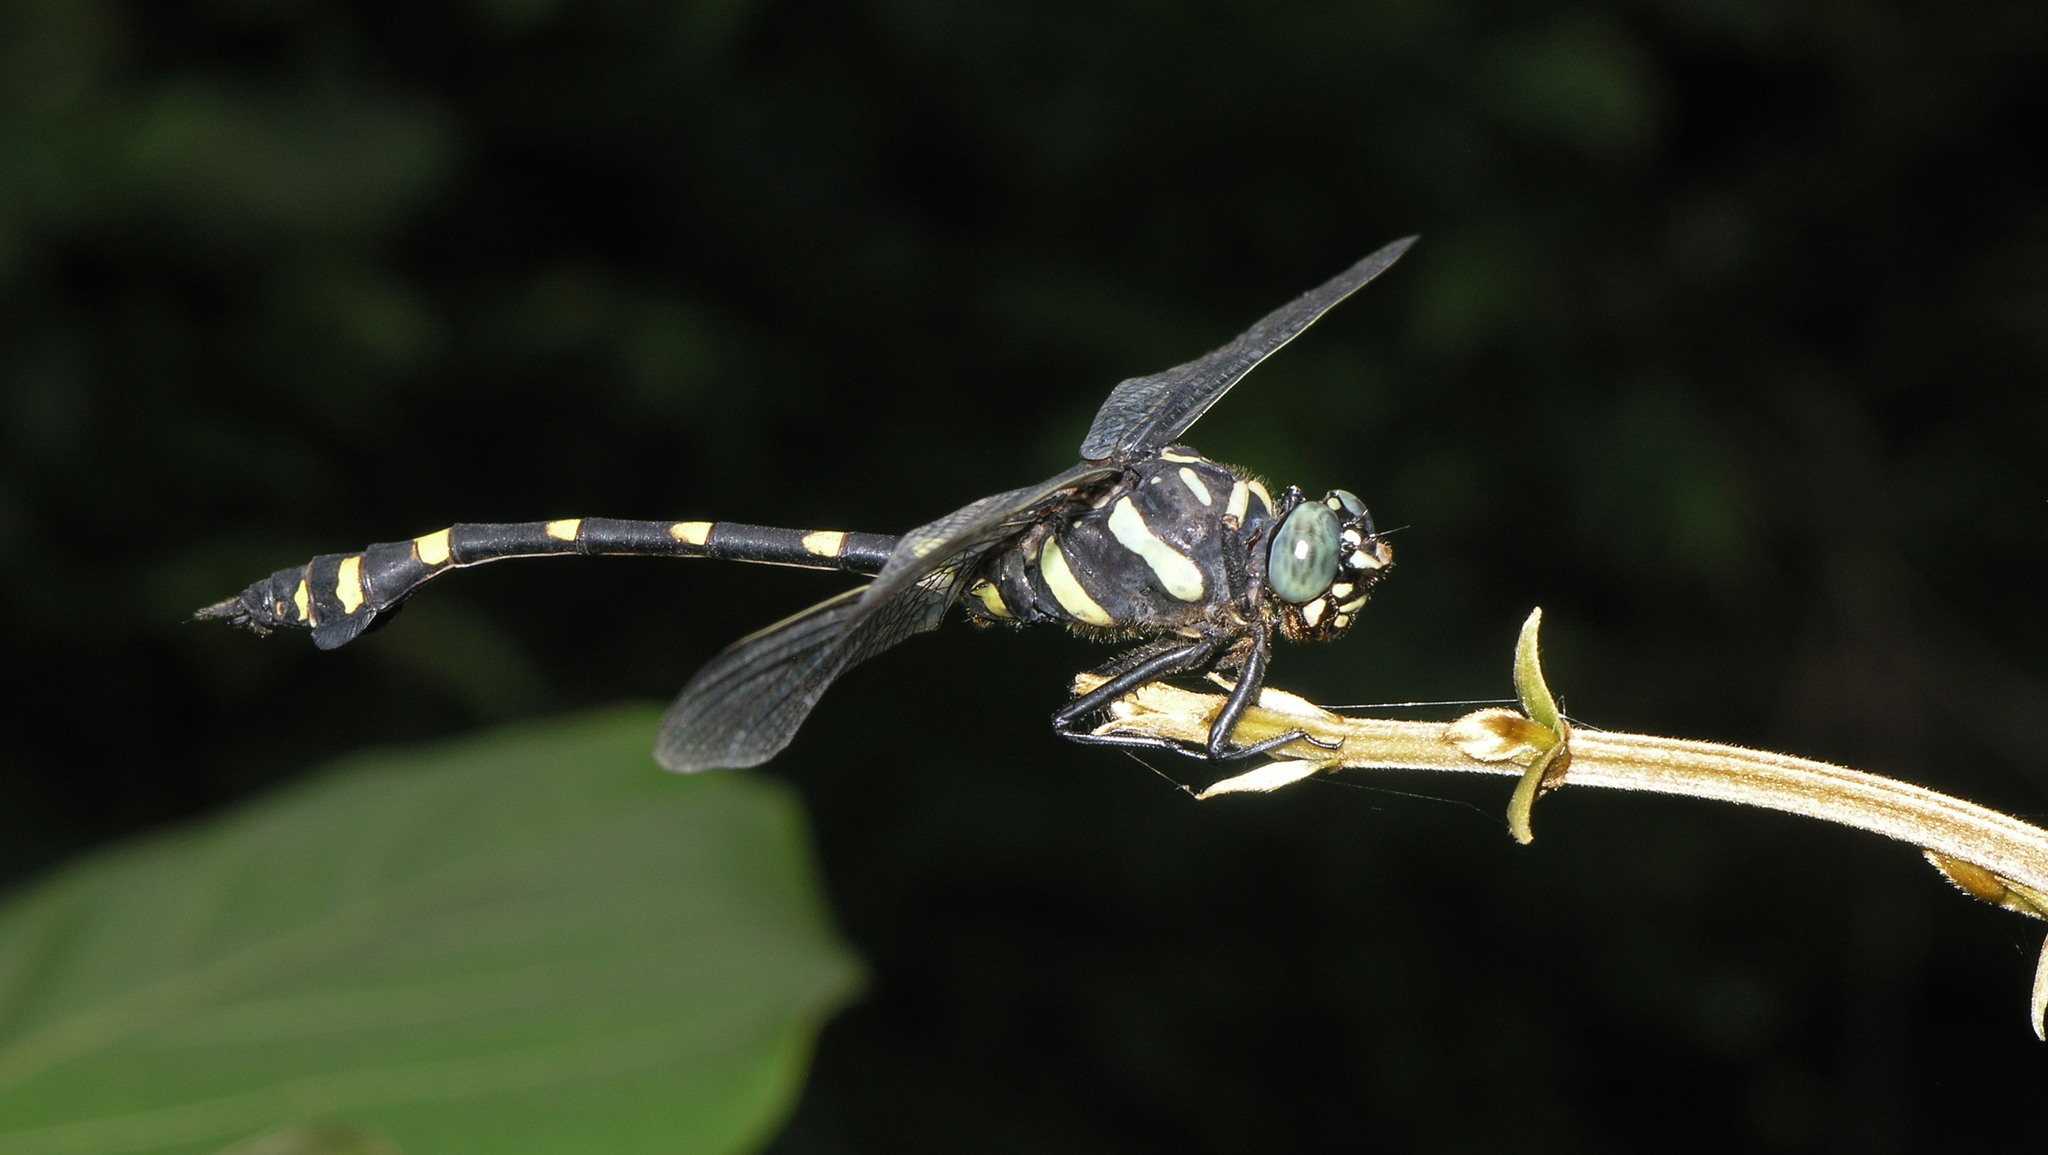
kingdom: Animalia
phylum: Arthropoda
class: Insecta
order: Odonata
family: Gomphidae
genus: Ictinogomphus
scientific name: Ictinogomphus decoratus
